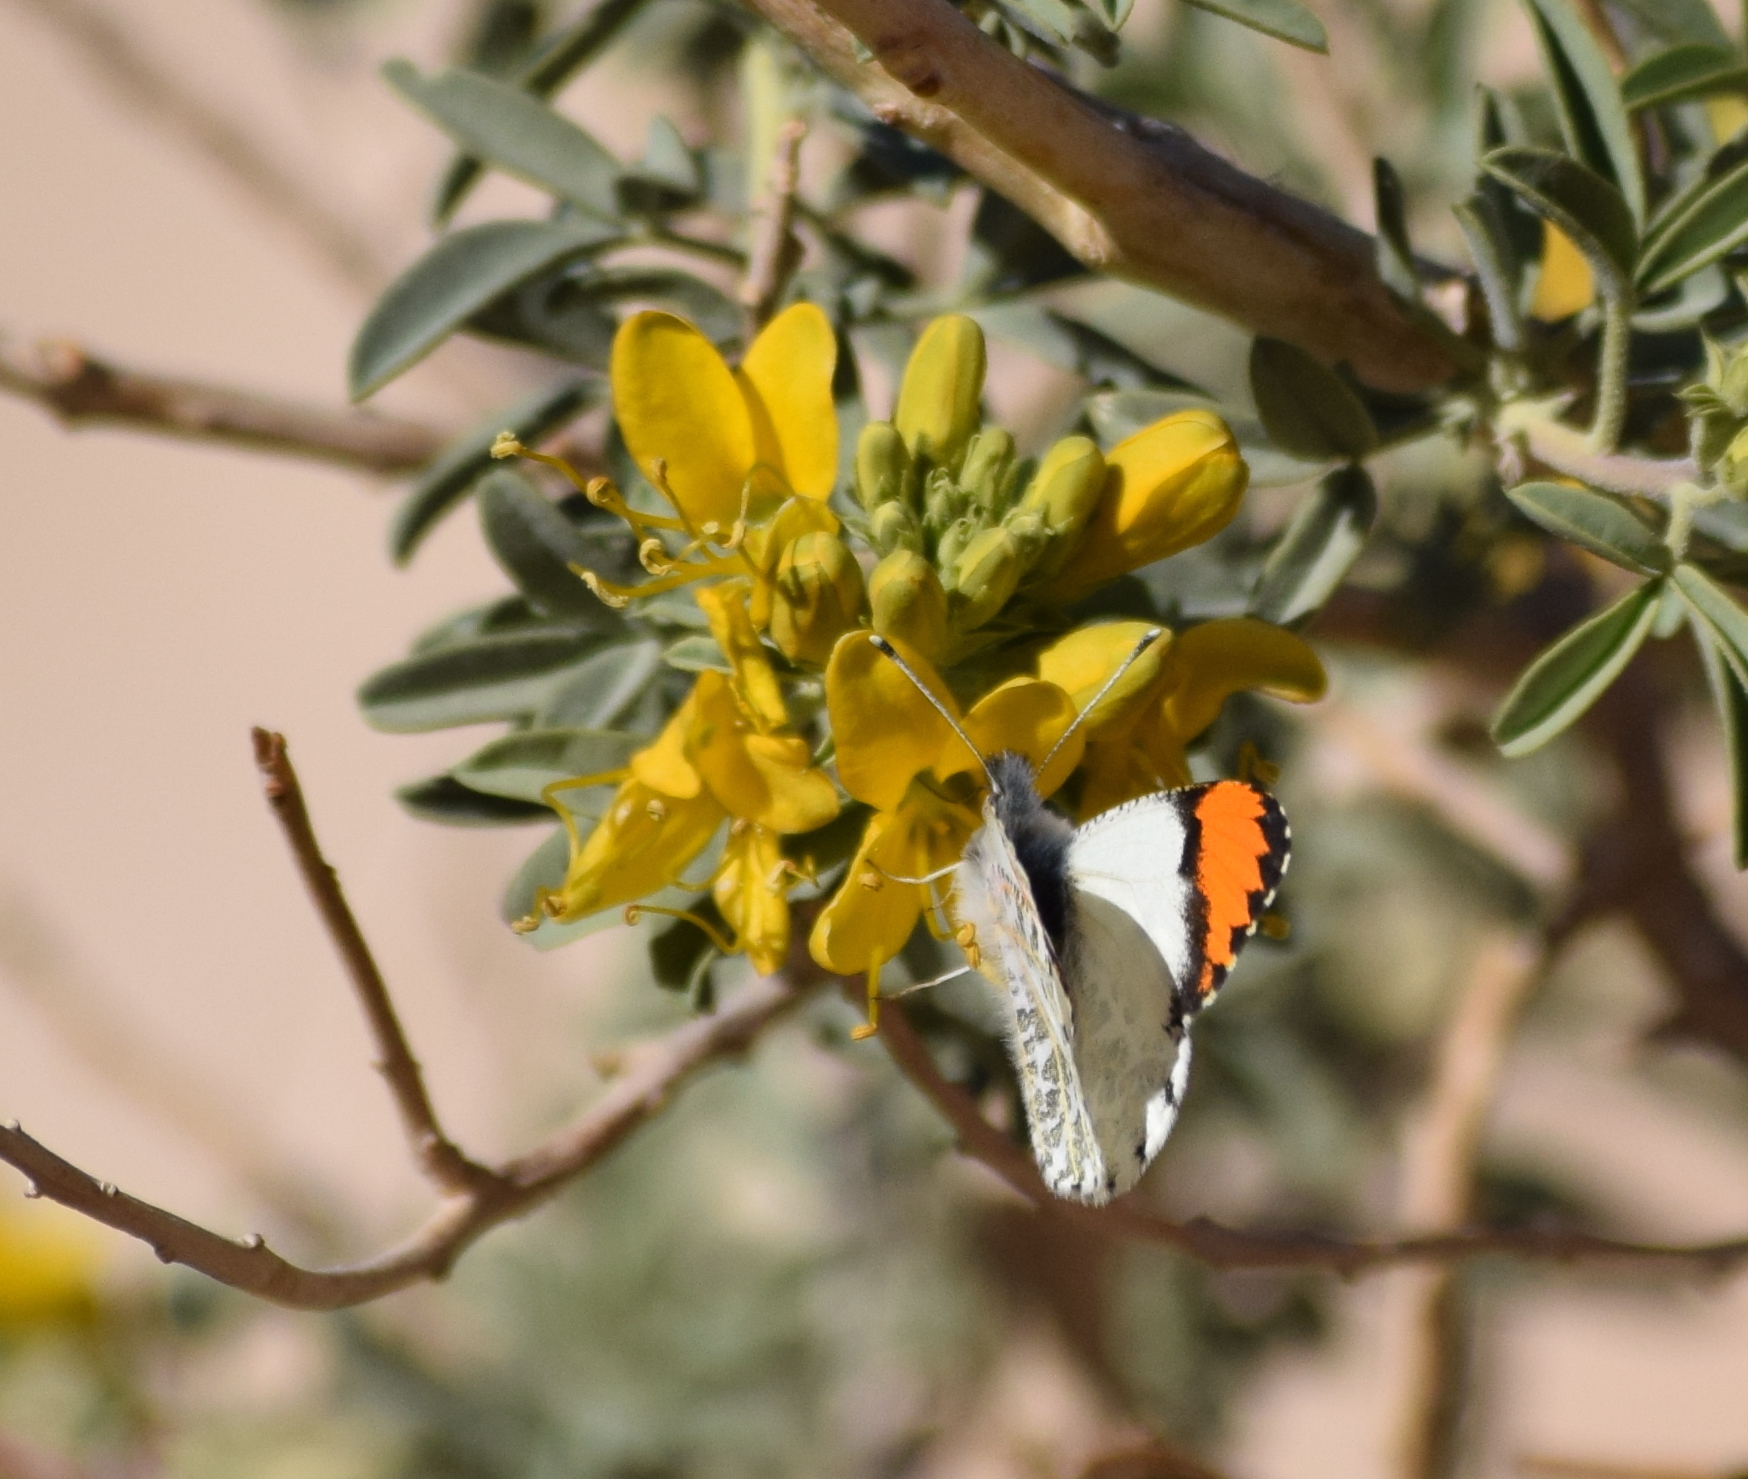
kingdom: Animalia
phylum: Arthropoda
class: Insecta
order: Lepidoptera
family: Pieridae
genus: Anthocharis
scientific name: Anthocharis sara
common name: Sara's orangetip
